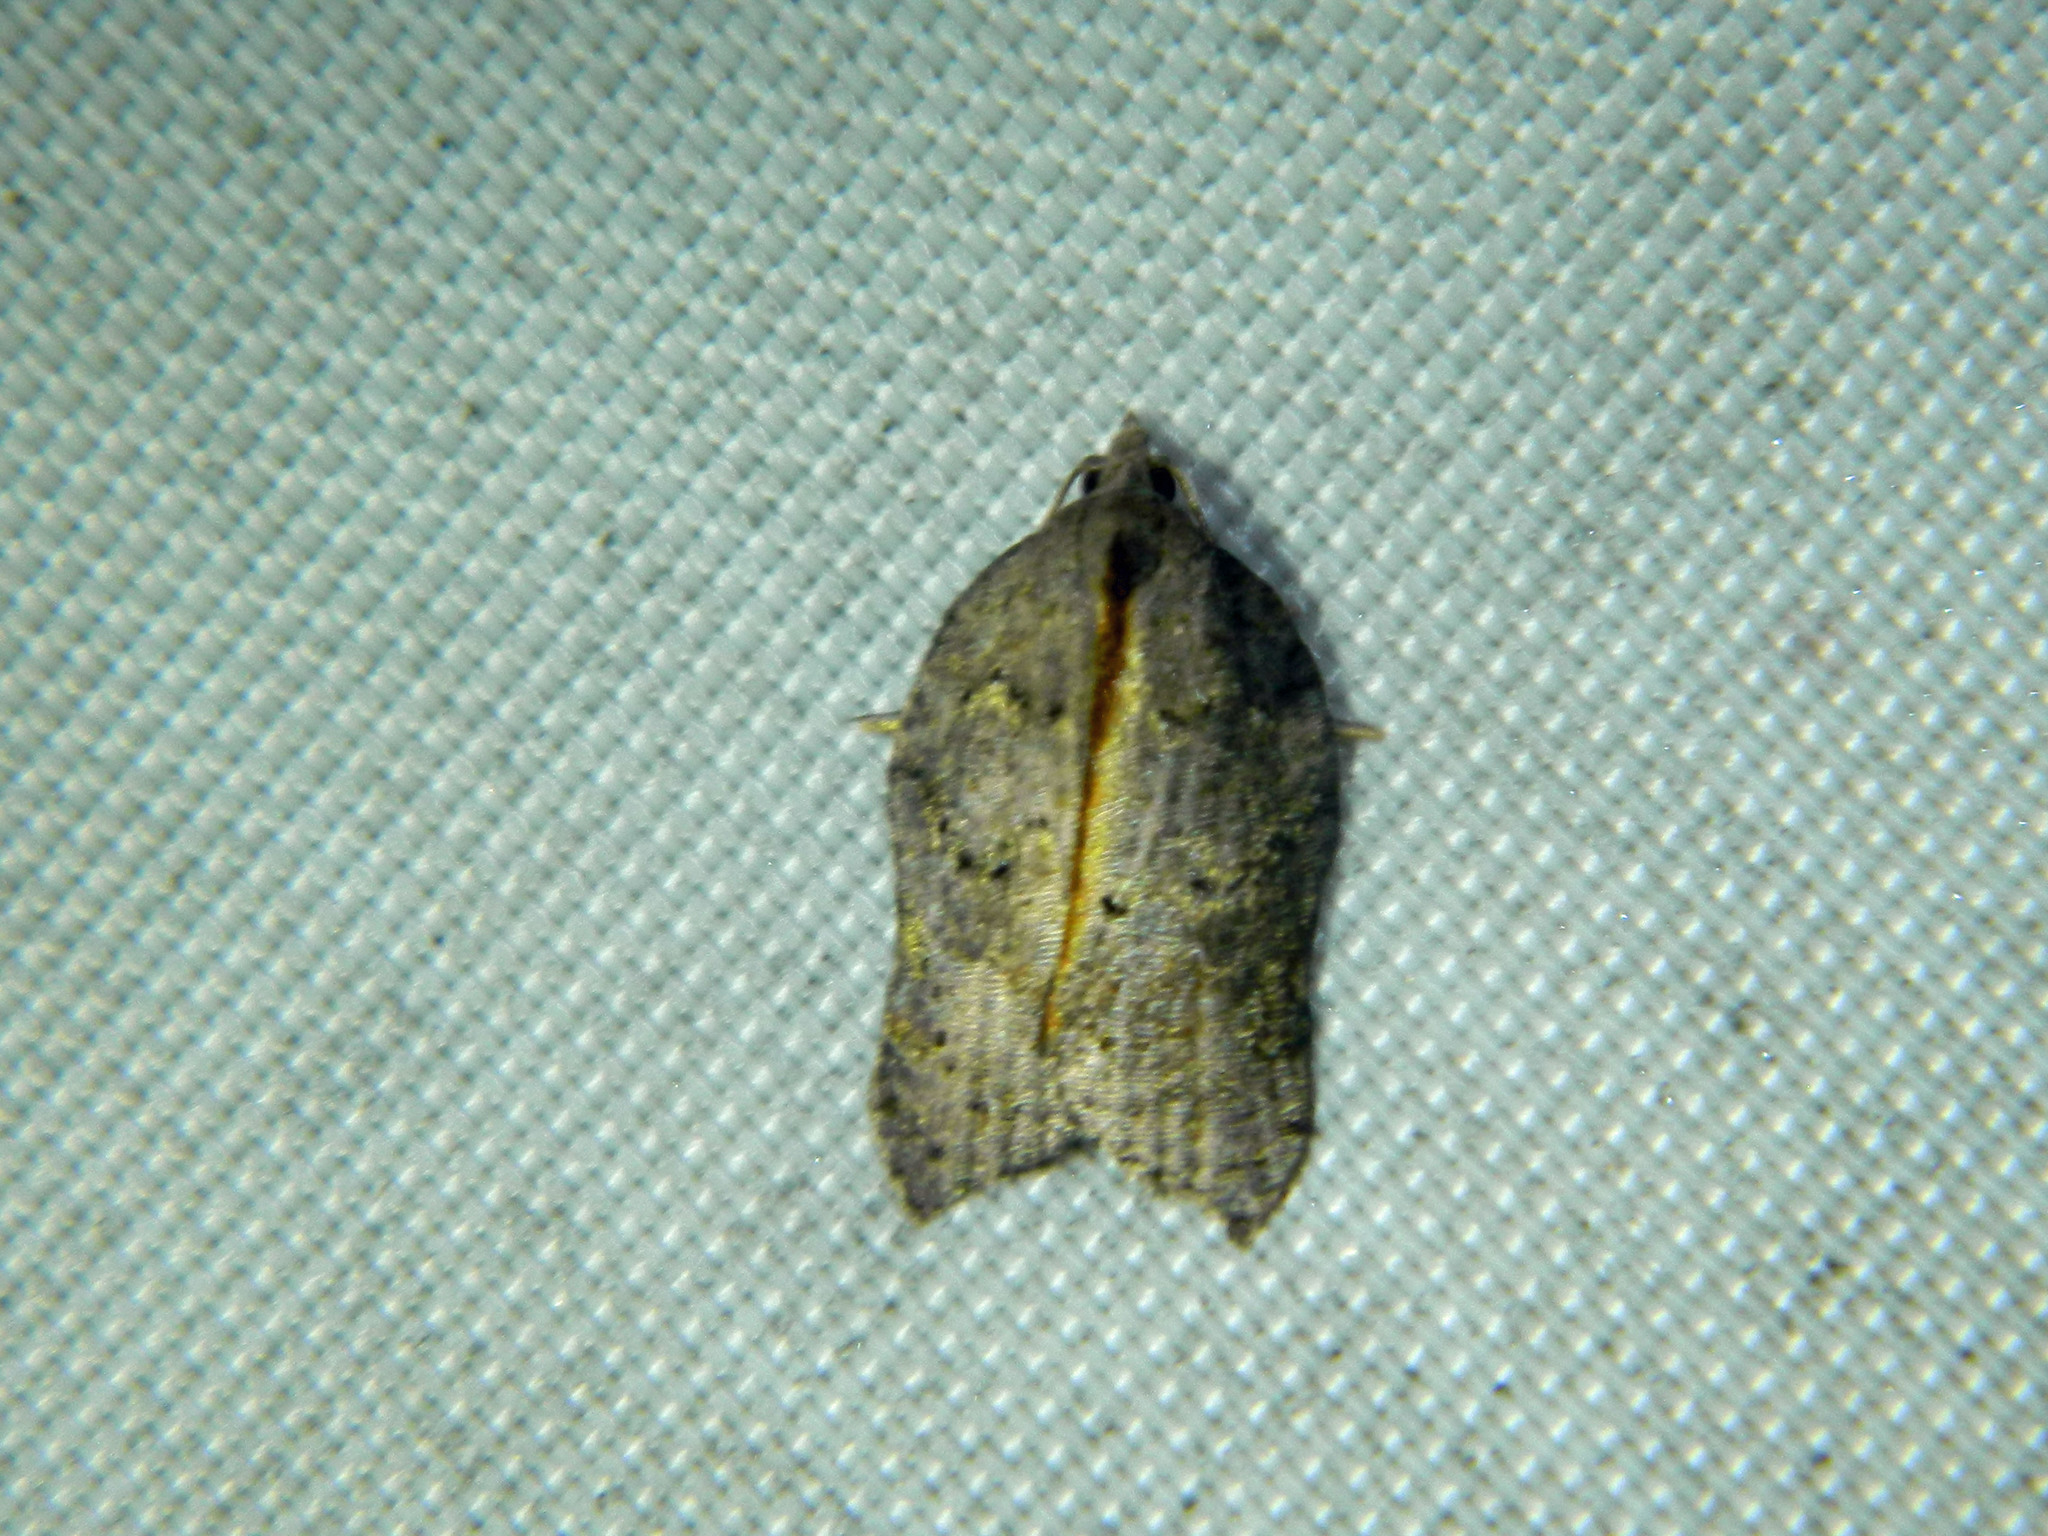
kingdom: Animalia
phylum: Arthropoda
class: Insecta
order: Lepidoptera
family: Tortricidae
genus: Acleris
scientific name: Acleris effractana
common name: Hook-winged tortrix moth
